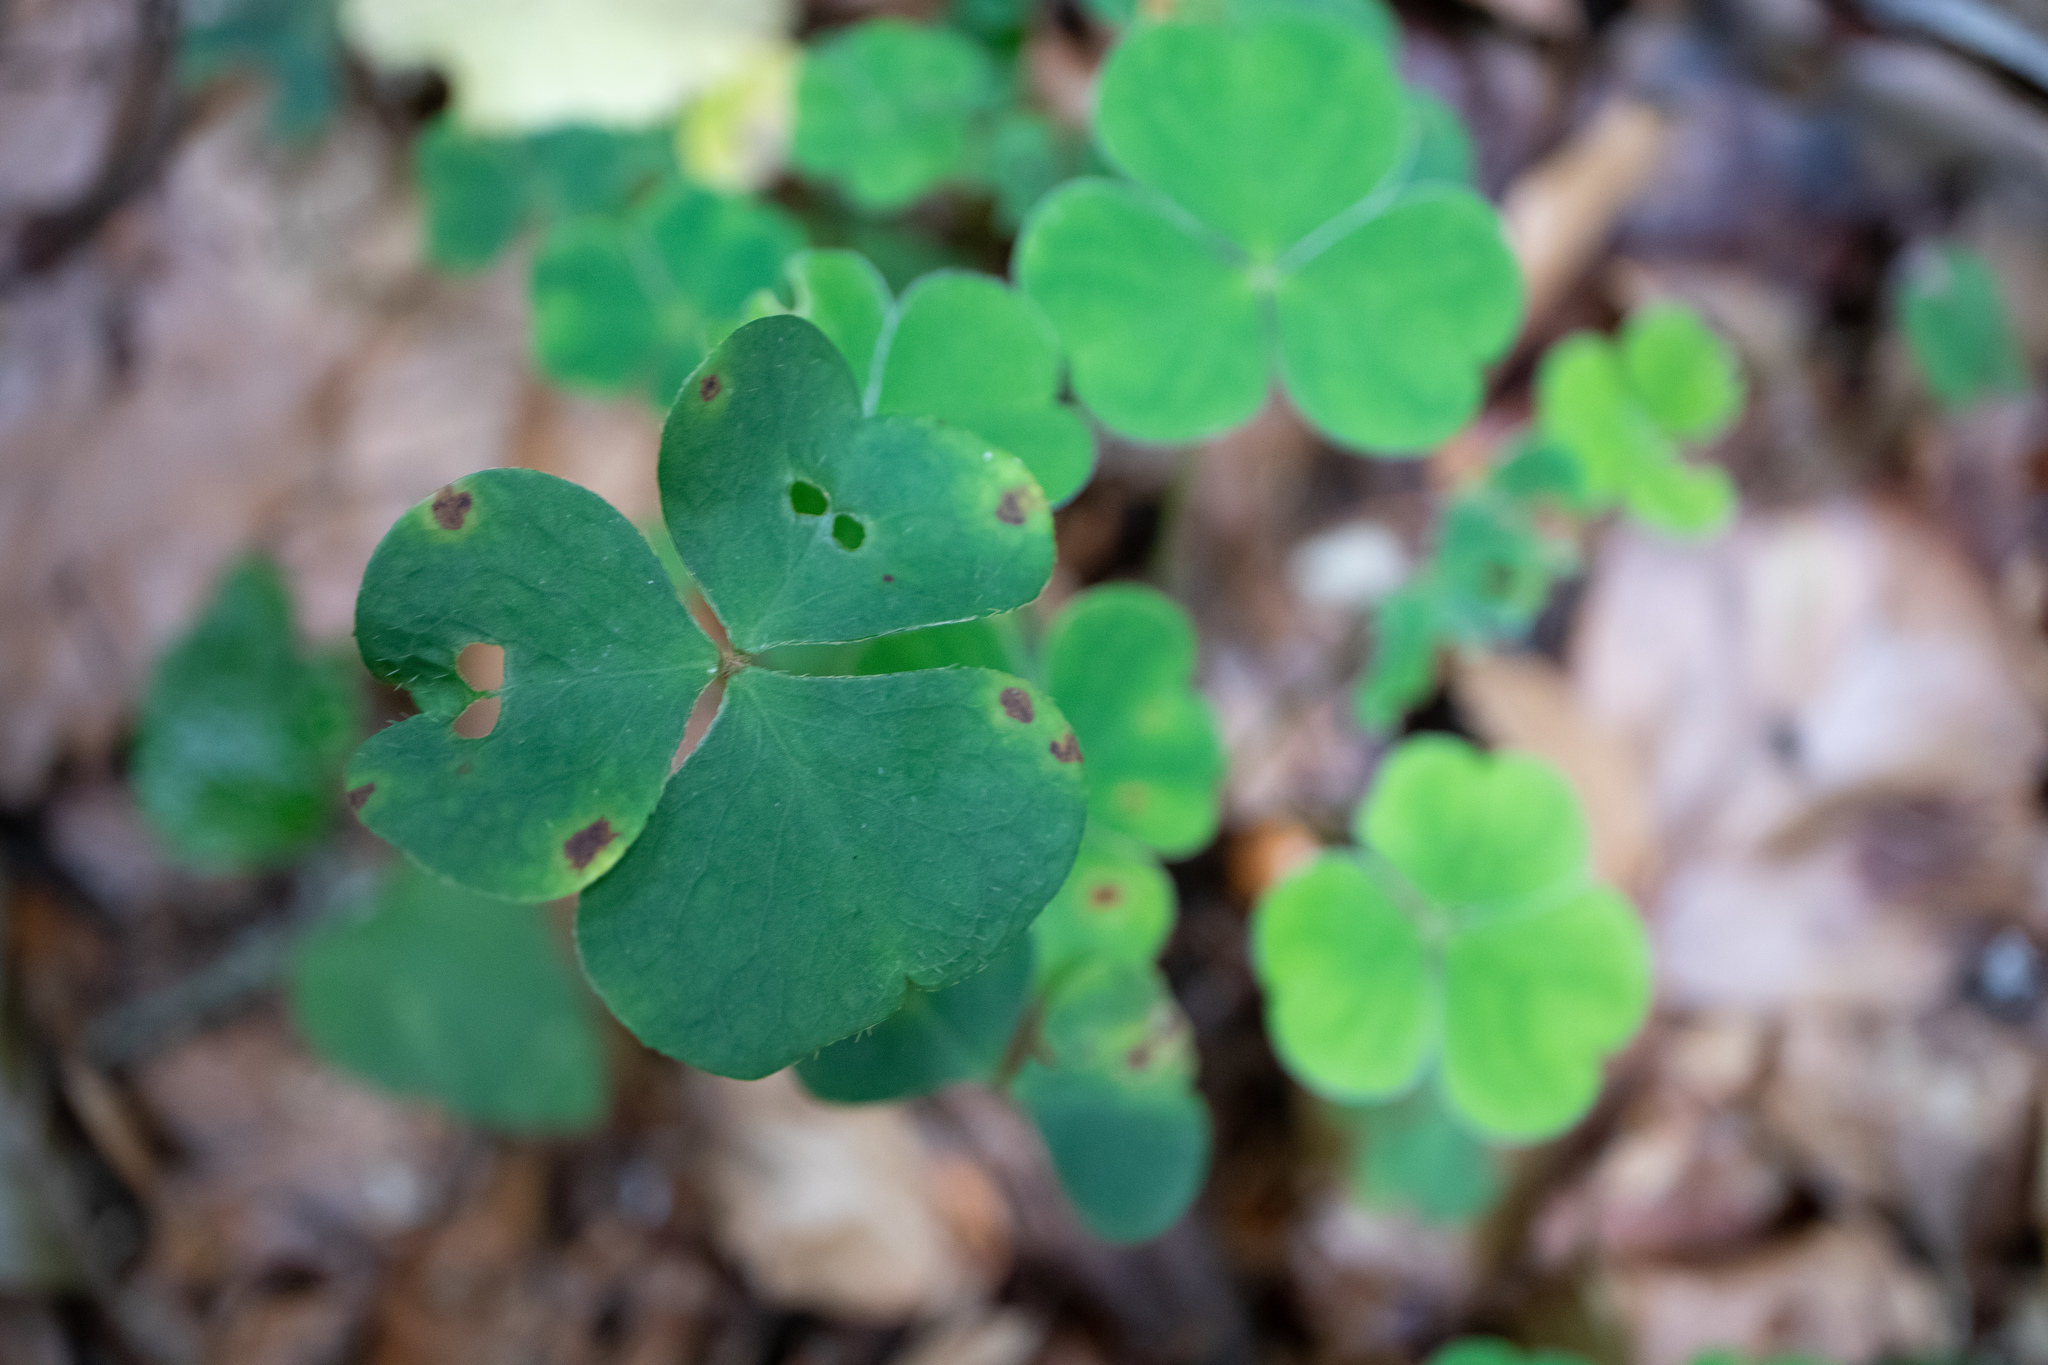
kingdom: Plantae
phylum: Tracheophyta
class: Magnoliopsida
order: Oxalidales
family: Oxalidaceae
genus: Oxalis
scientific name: Oxalis acetosella
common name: Wood-sorrel
